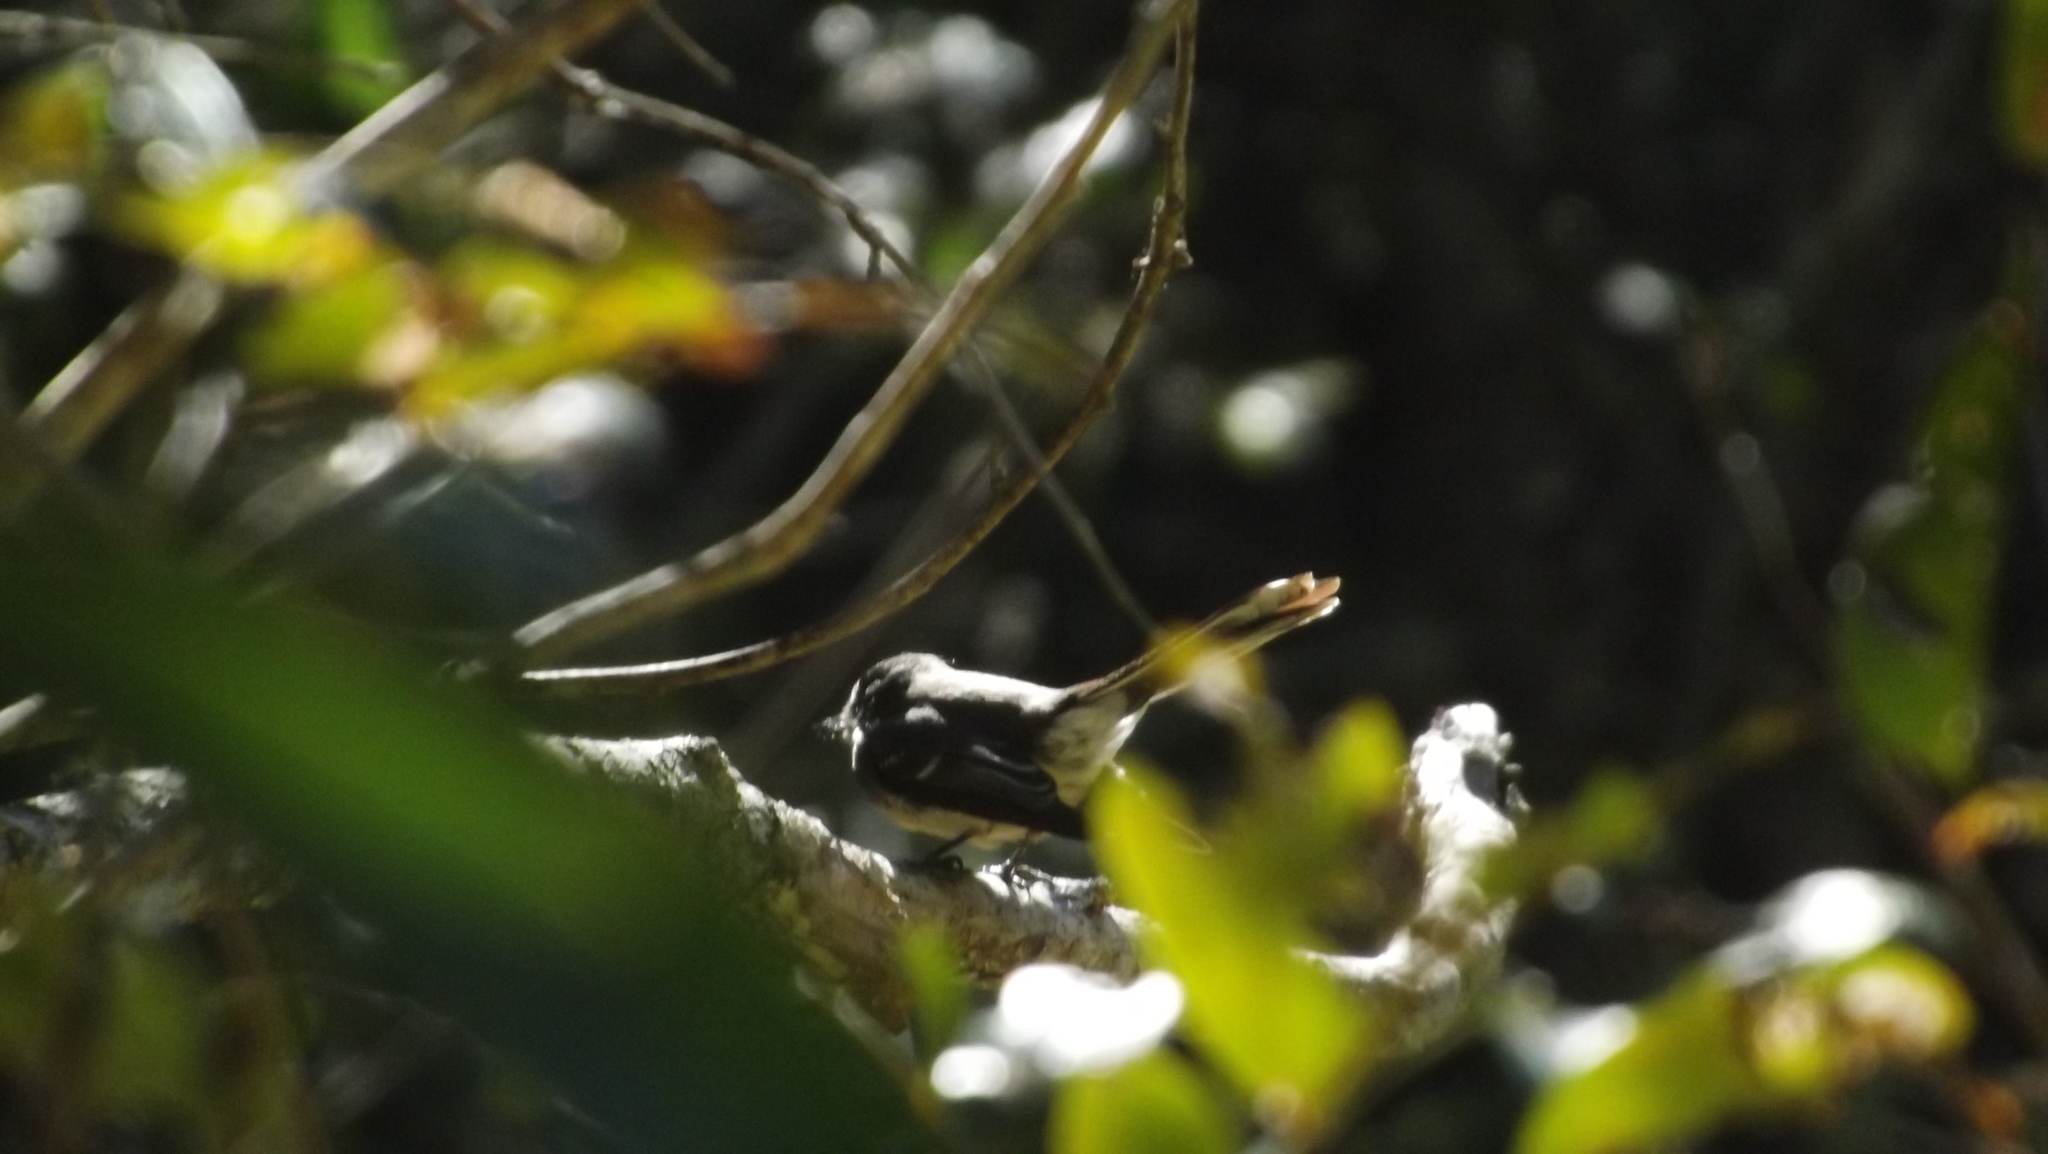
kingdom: Animalia
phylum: Chordata
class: Aves
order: Passeriformes
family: Rhipiduridae
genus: Rhipidura
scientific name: Rhipidura albiscapa
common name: Grey fantail
